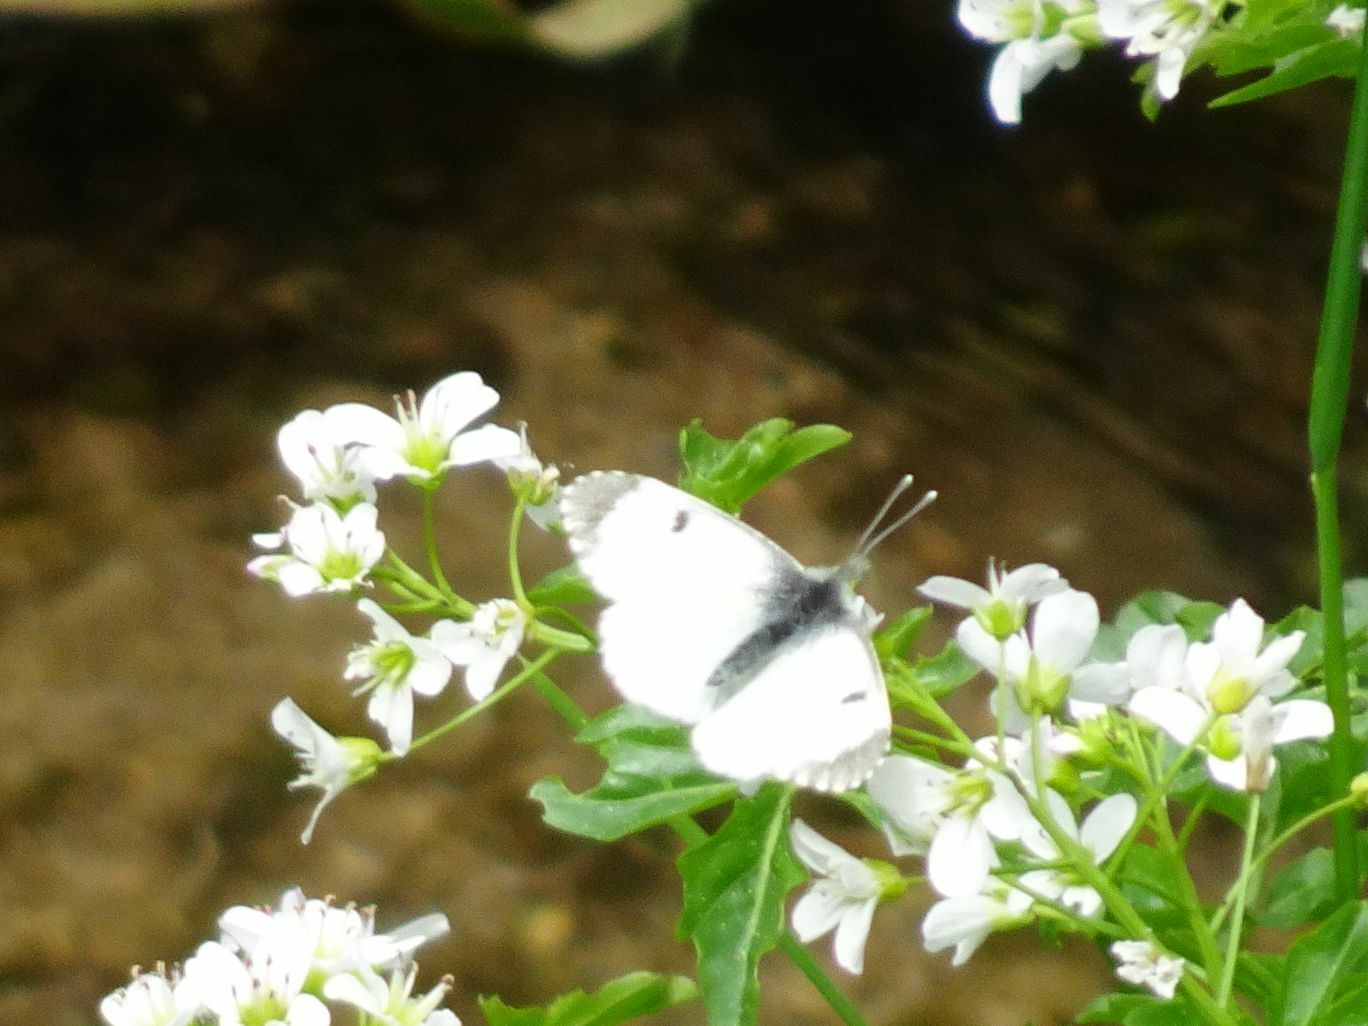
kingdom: Animalia
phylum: Arthropoda
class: Insecta
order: Lepidoptera
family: Pieridae
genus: Anthocharis
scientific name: Anthocharis cardamines
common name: Orange-tip
